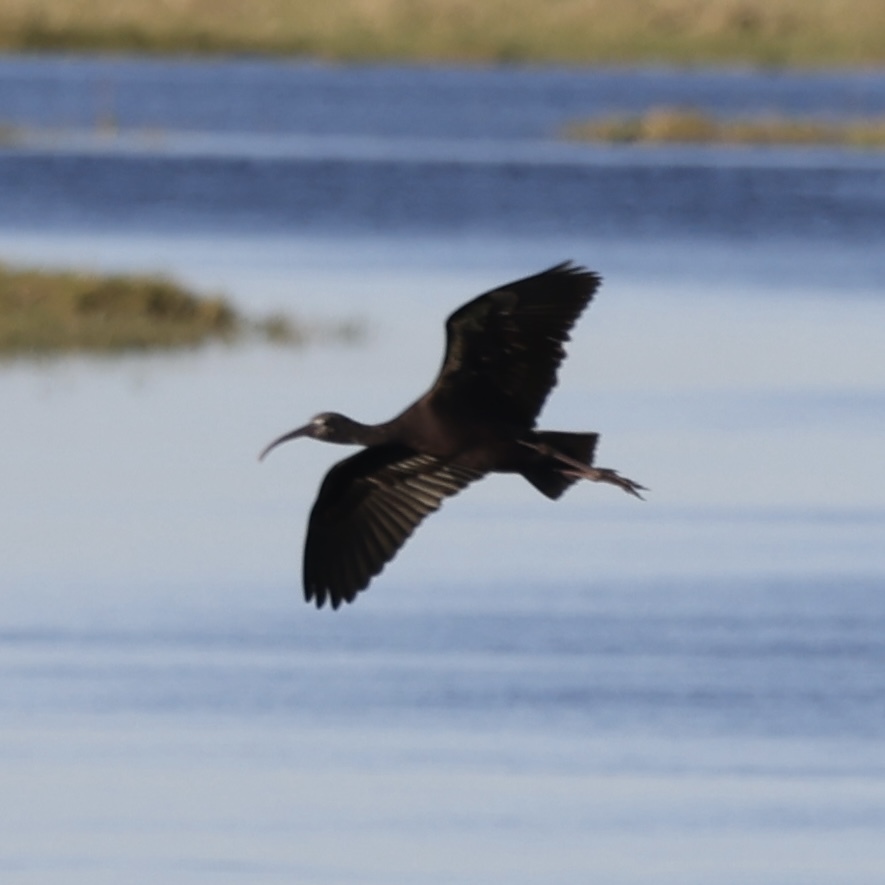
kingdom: Animalia
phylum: Chordata
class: Aves
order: Pelecaniformes
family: Threskiornithidae
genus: Plegadis
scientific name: Plegadis falcinellus
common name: Glossy ibis
